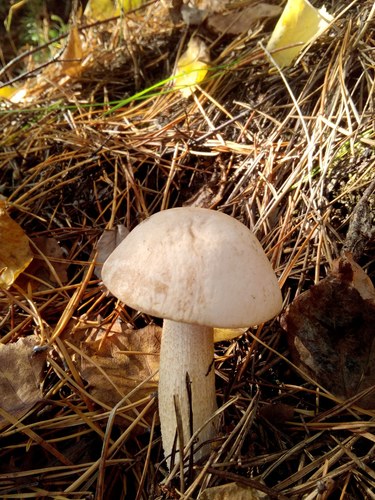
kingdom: Fungi
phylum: Basidiomycota
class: Agaricomycetes
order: Boletales
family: Boletaceae
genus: Leccinum
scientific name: Leccinum
